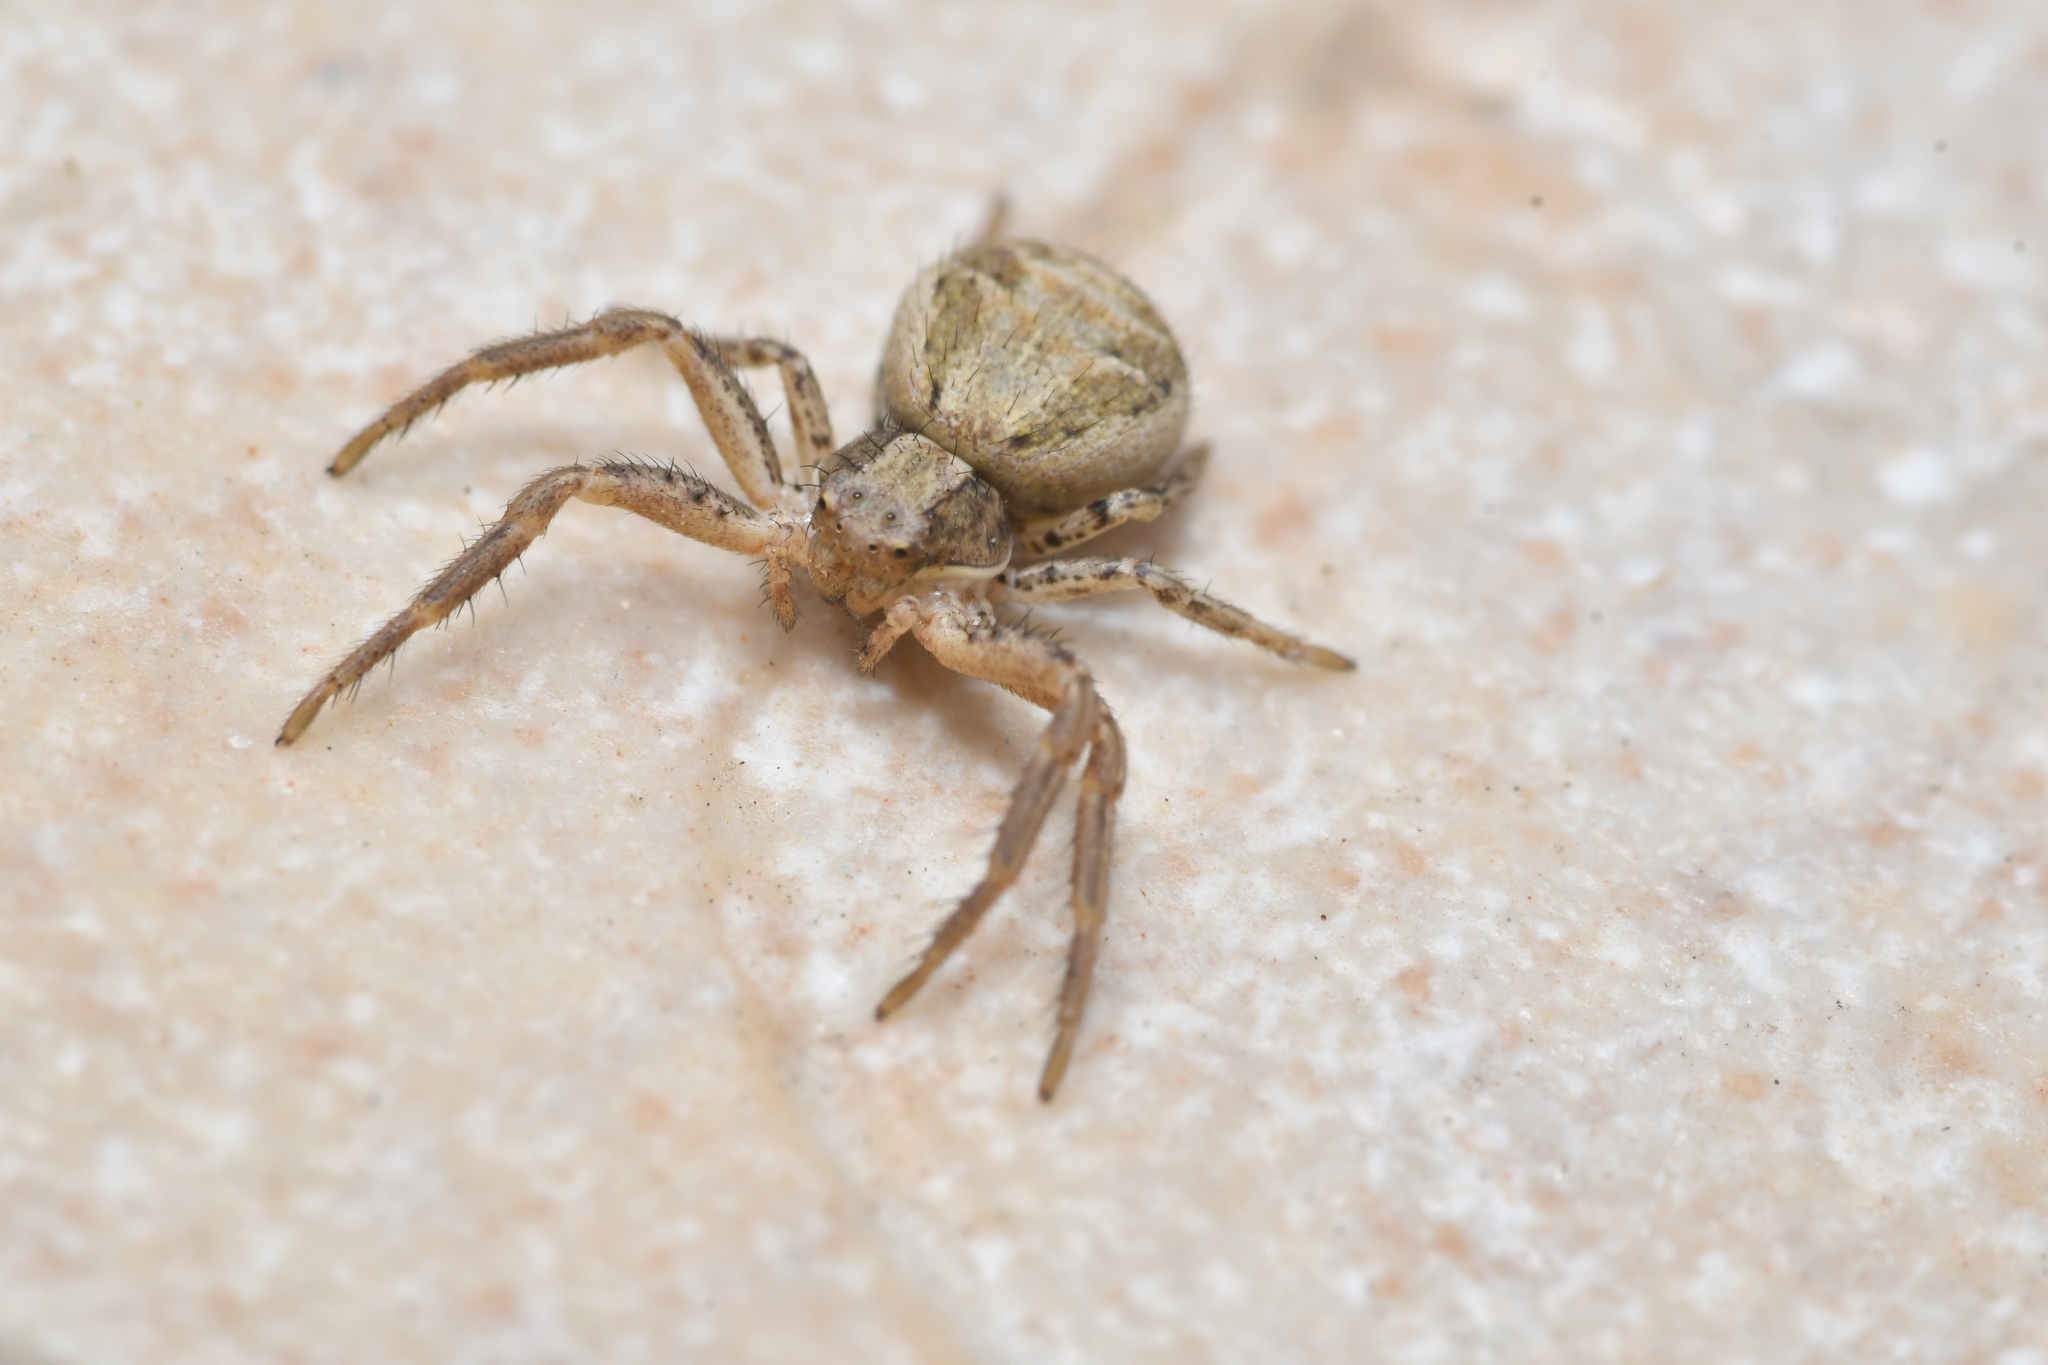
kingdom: Animalia
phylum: Arthropoda
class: Arachnida
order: Araneae
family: Thomisidae
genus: Xysticus
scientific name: Xysticus
